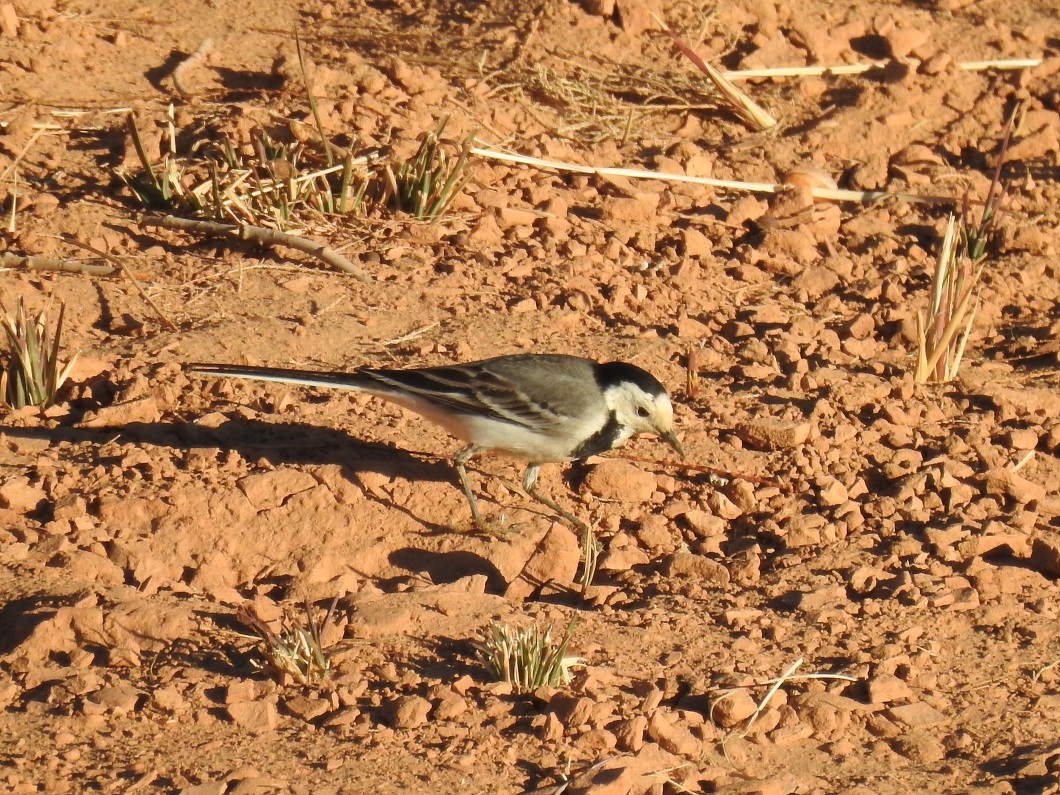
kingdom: Animalia
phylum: Chordata
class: Aves
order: Passeriformes
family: Motacillidae
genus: Motacilla
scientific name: Motacilla alba
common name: White wagtail
